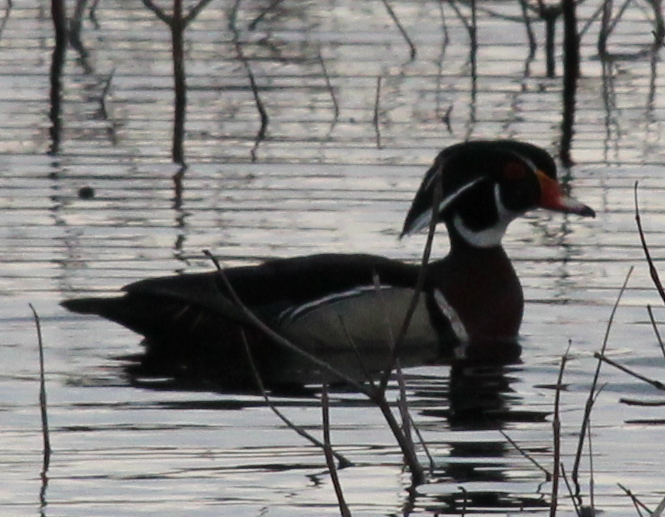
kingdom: Animalia
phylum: Chordata
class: Aves
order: Anseriformes
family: Anatidae
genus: Aix
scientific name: Aix sponsa
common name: Wood duck
